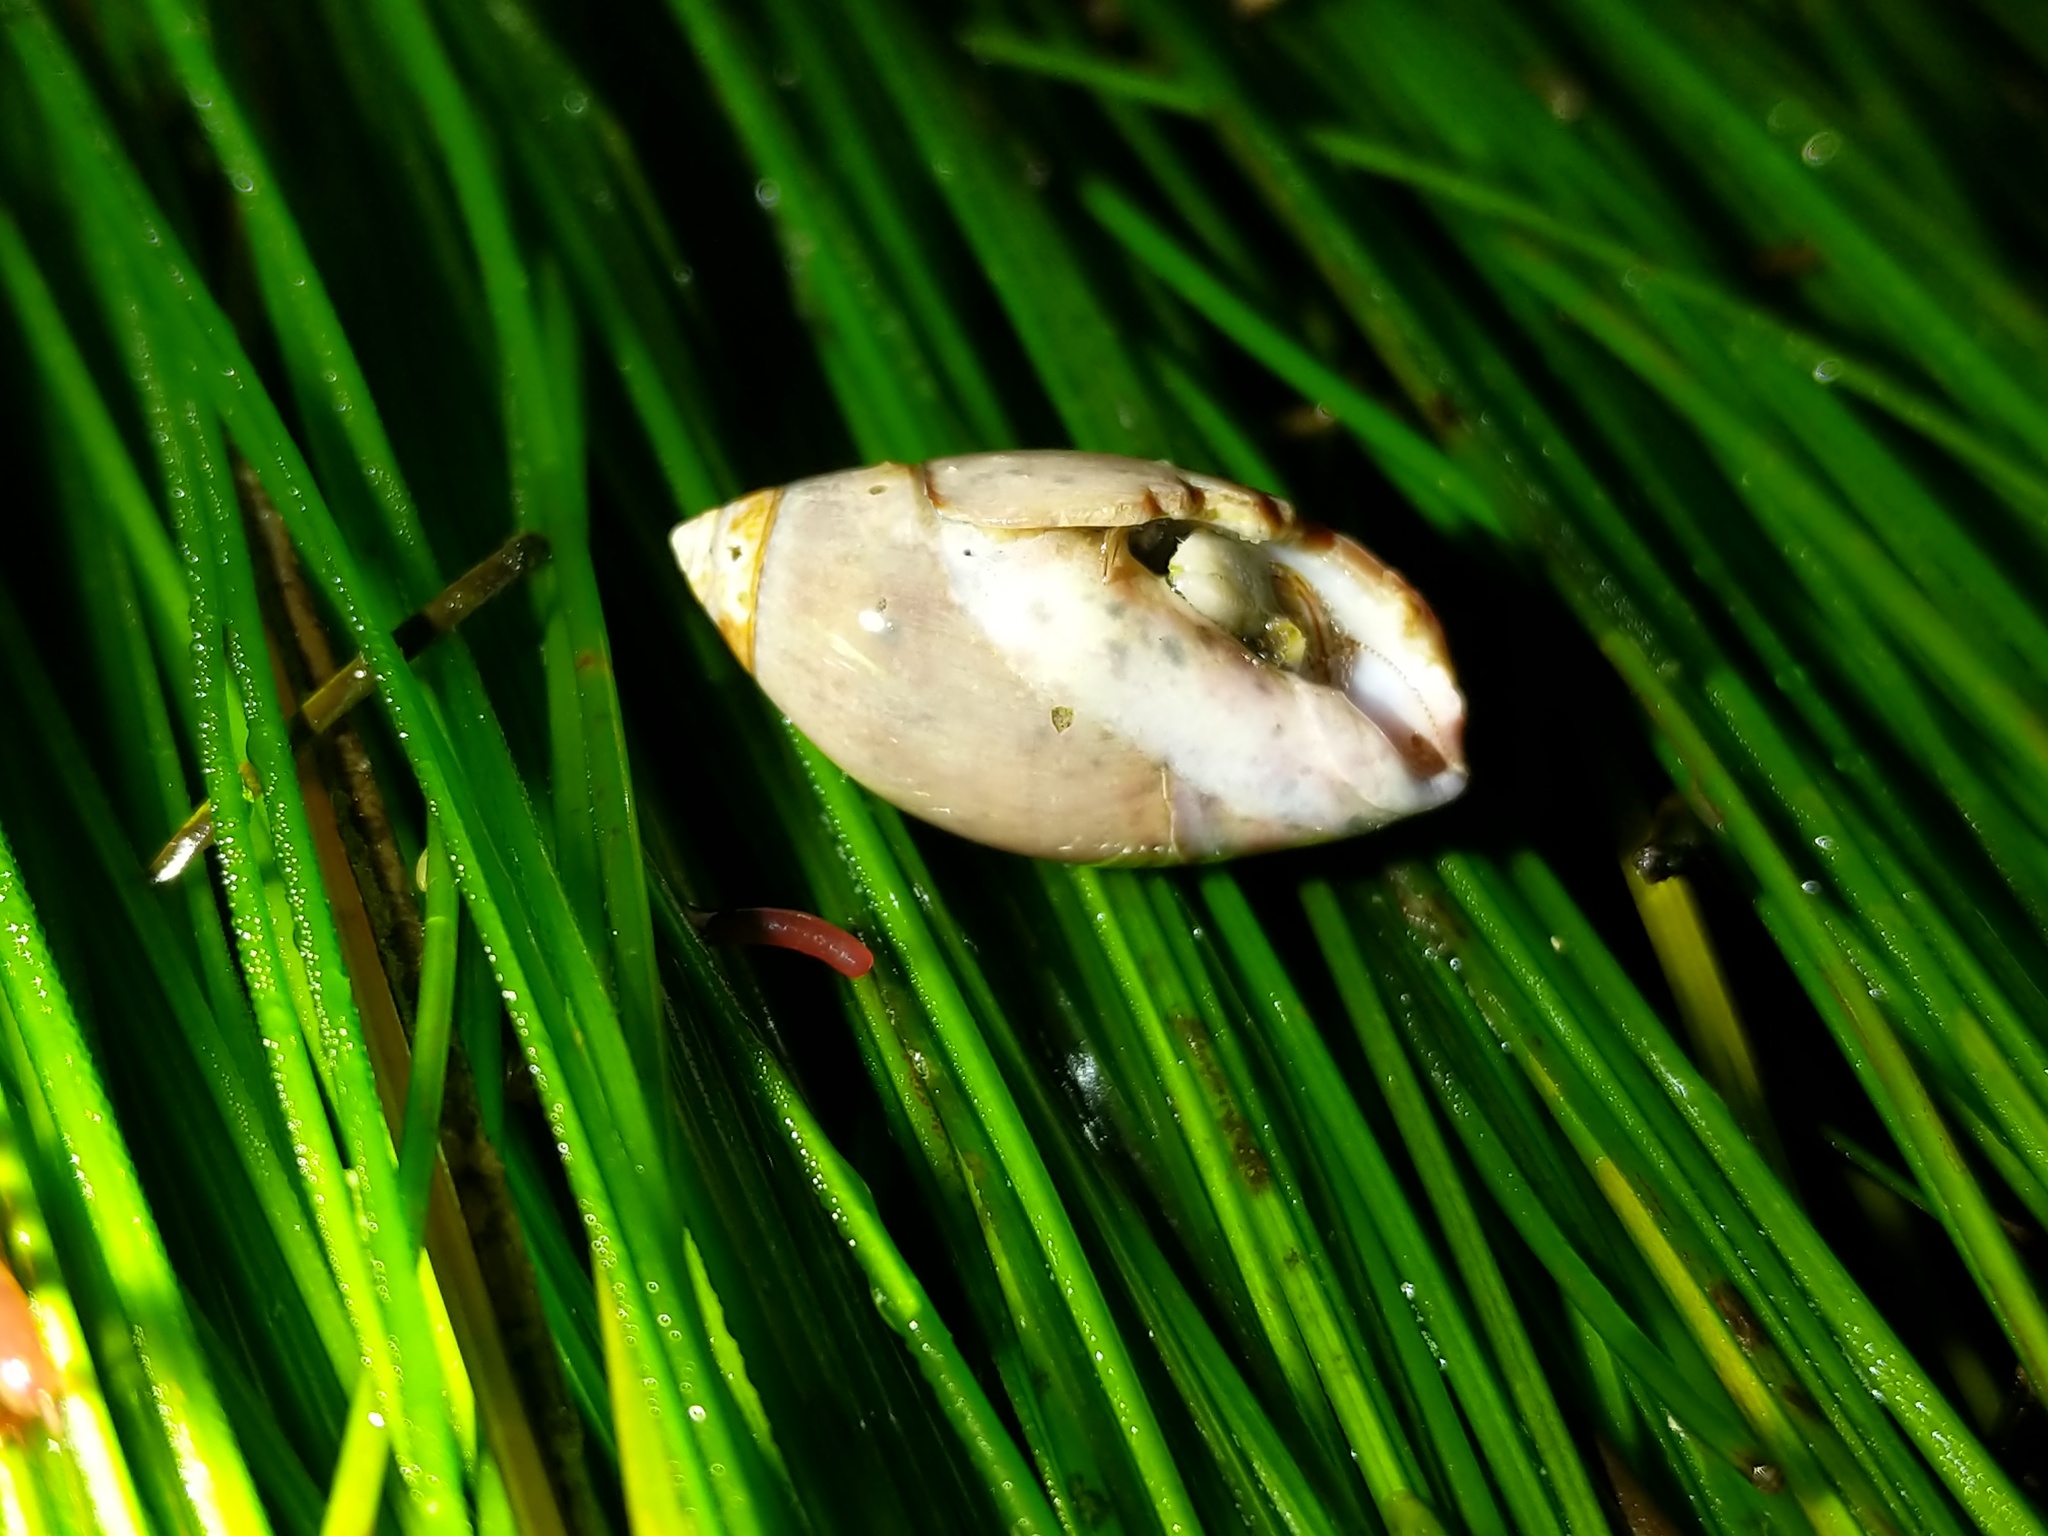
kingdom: Animalia
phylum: Mollusca
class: Gastropoda
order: Neogastropoda
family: Olividae
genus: Callianax
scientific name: Callianax biplicata
